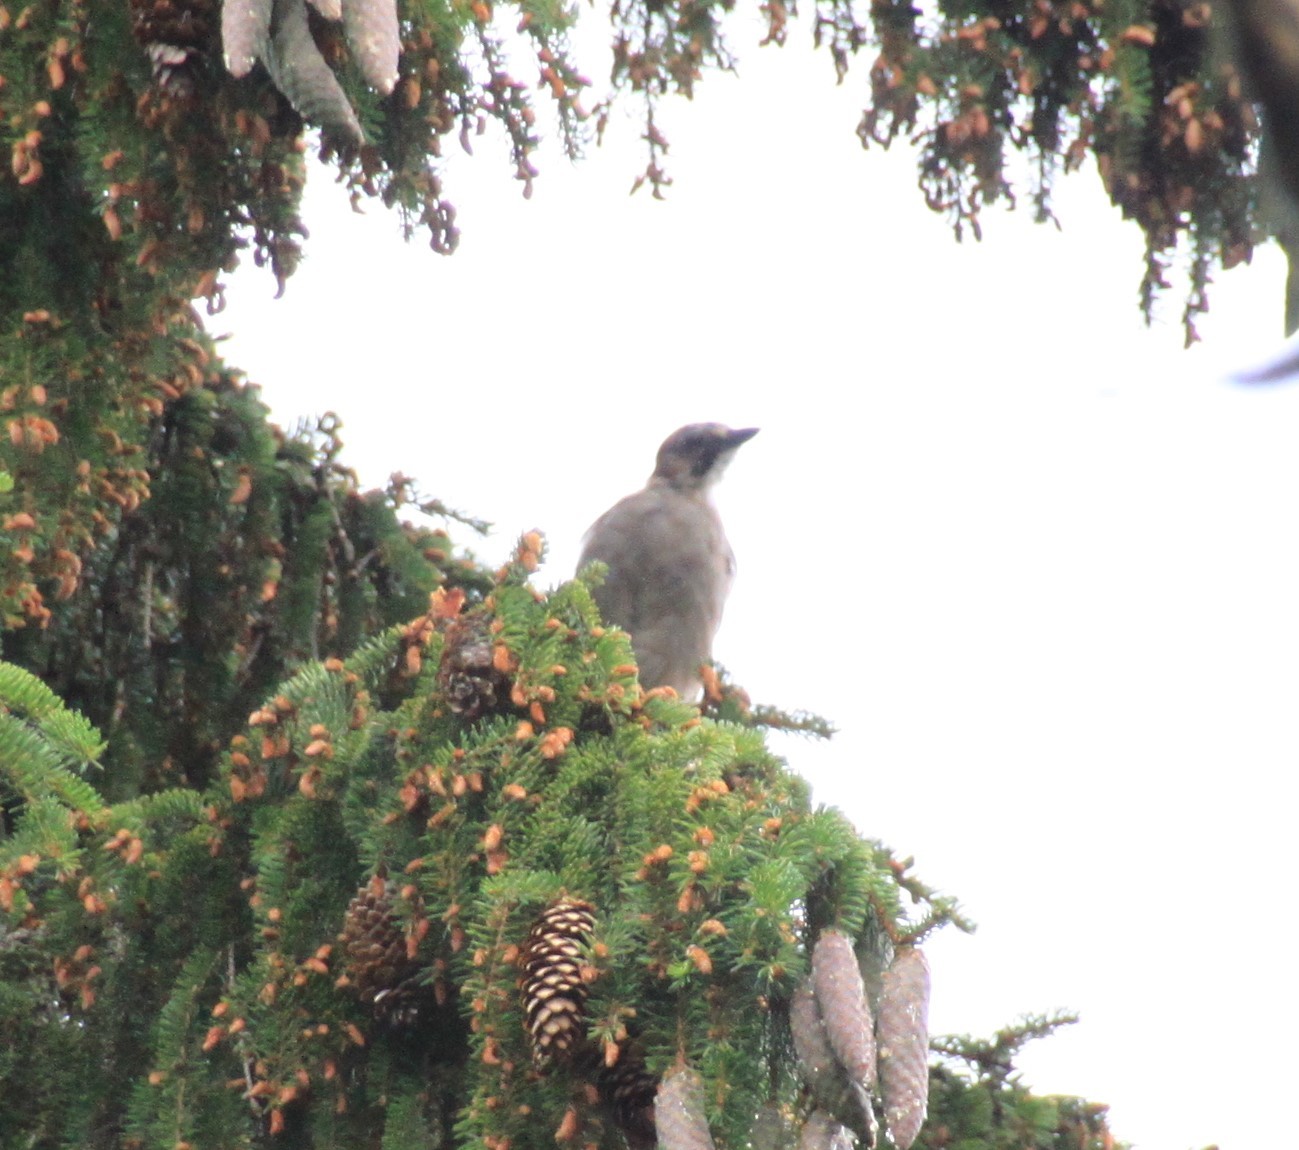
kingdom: Animalia
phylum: Chordata
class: Aves
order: Passeriformes
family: Corvidae
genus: Garrulus
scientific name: Garrulus glandarius
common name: Eurasian jay
